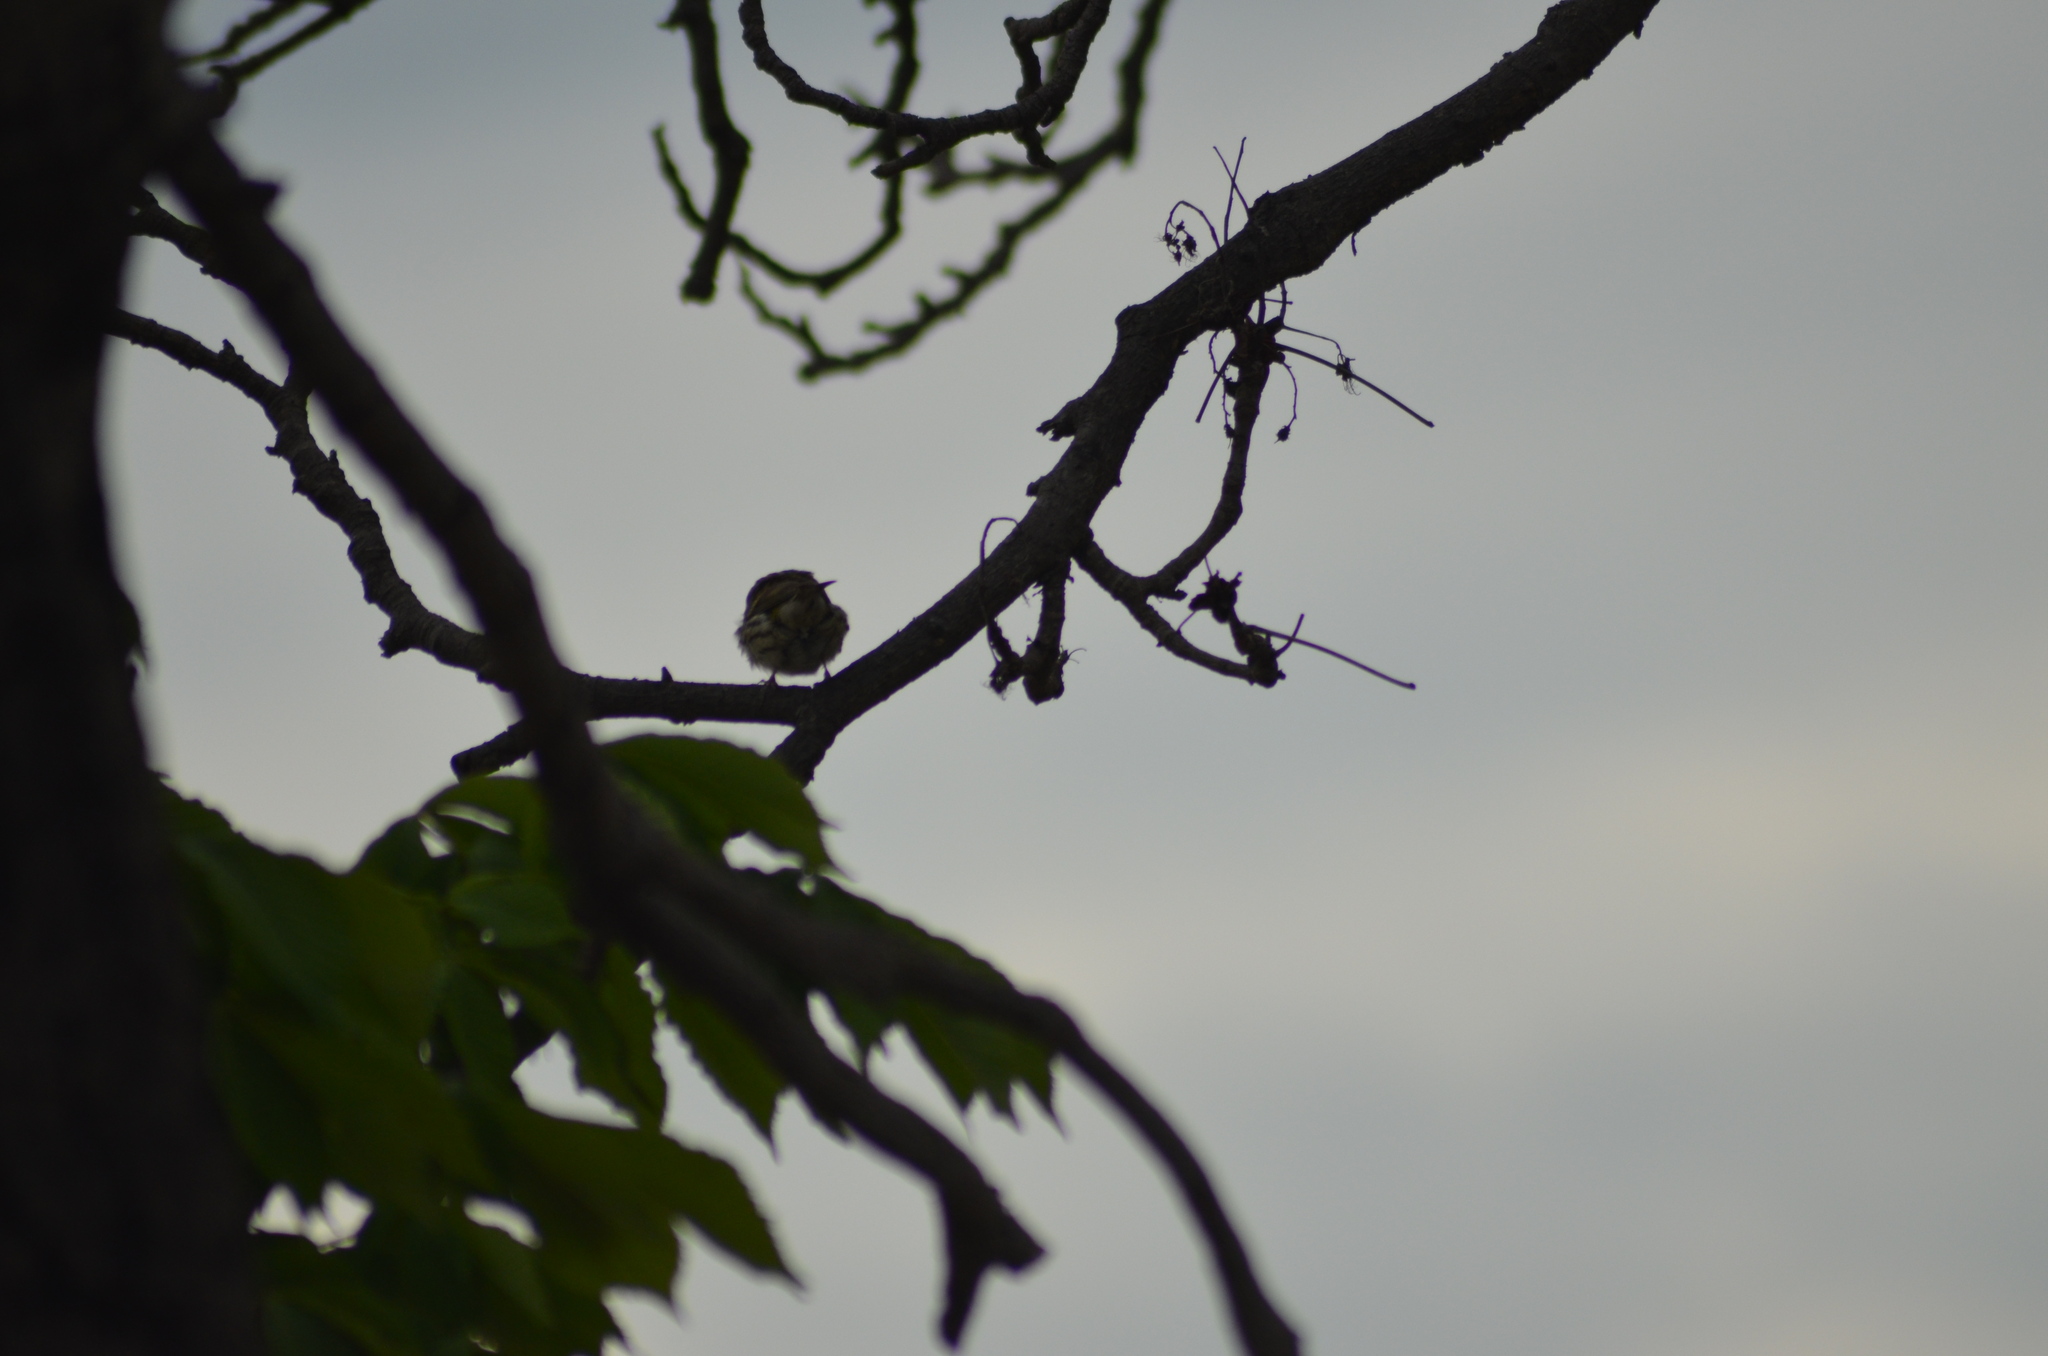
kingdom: Animalia
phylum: Chordata
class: Aves
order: Passeriformes
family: Fringillidae
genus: Serinus
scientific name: Serinus serinus
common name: European serin
